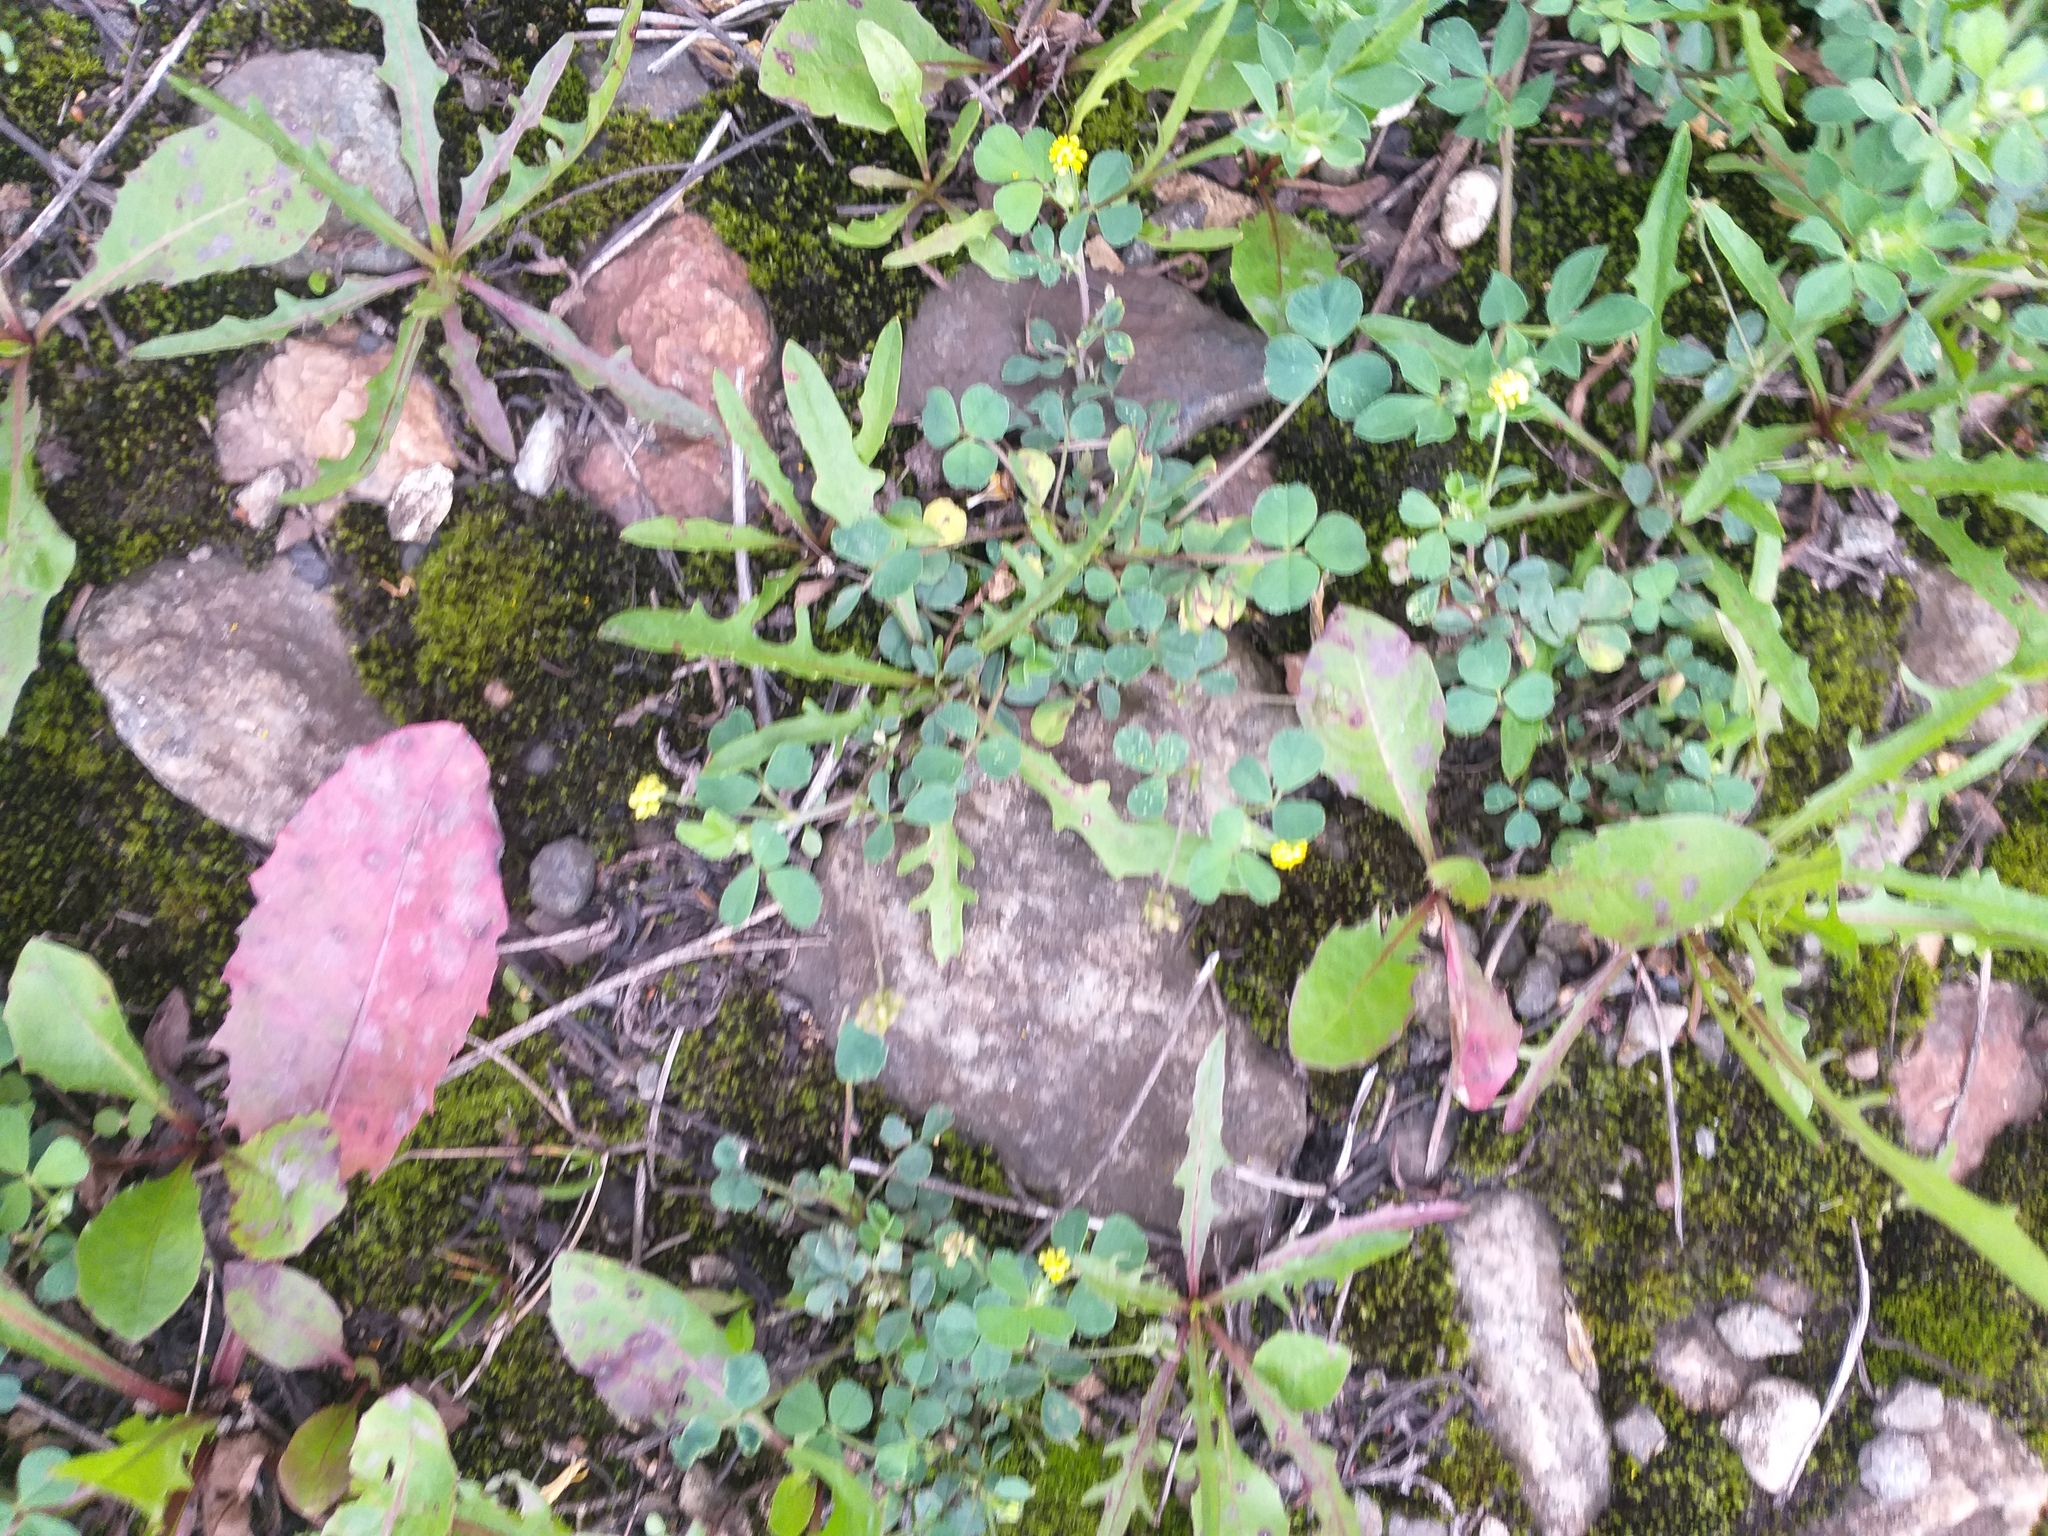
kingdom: Plantae
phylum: Tracheophyta
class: Magnoliopsida
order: Fabales
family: Fabaceae
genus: Medicago
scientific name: Medicago lupulina
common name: Black medick
